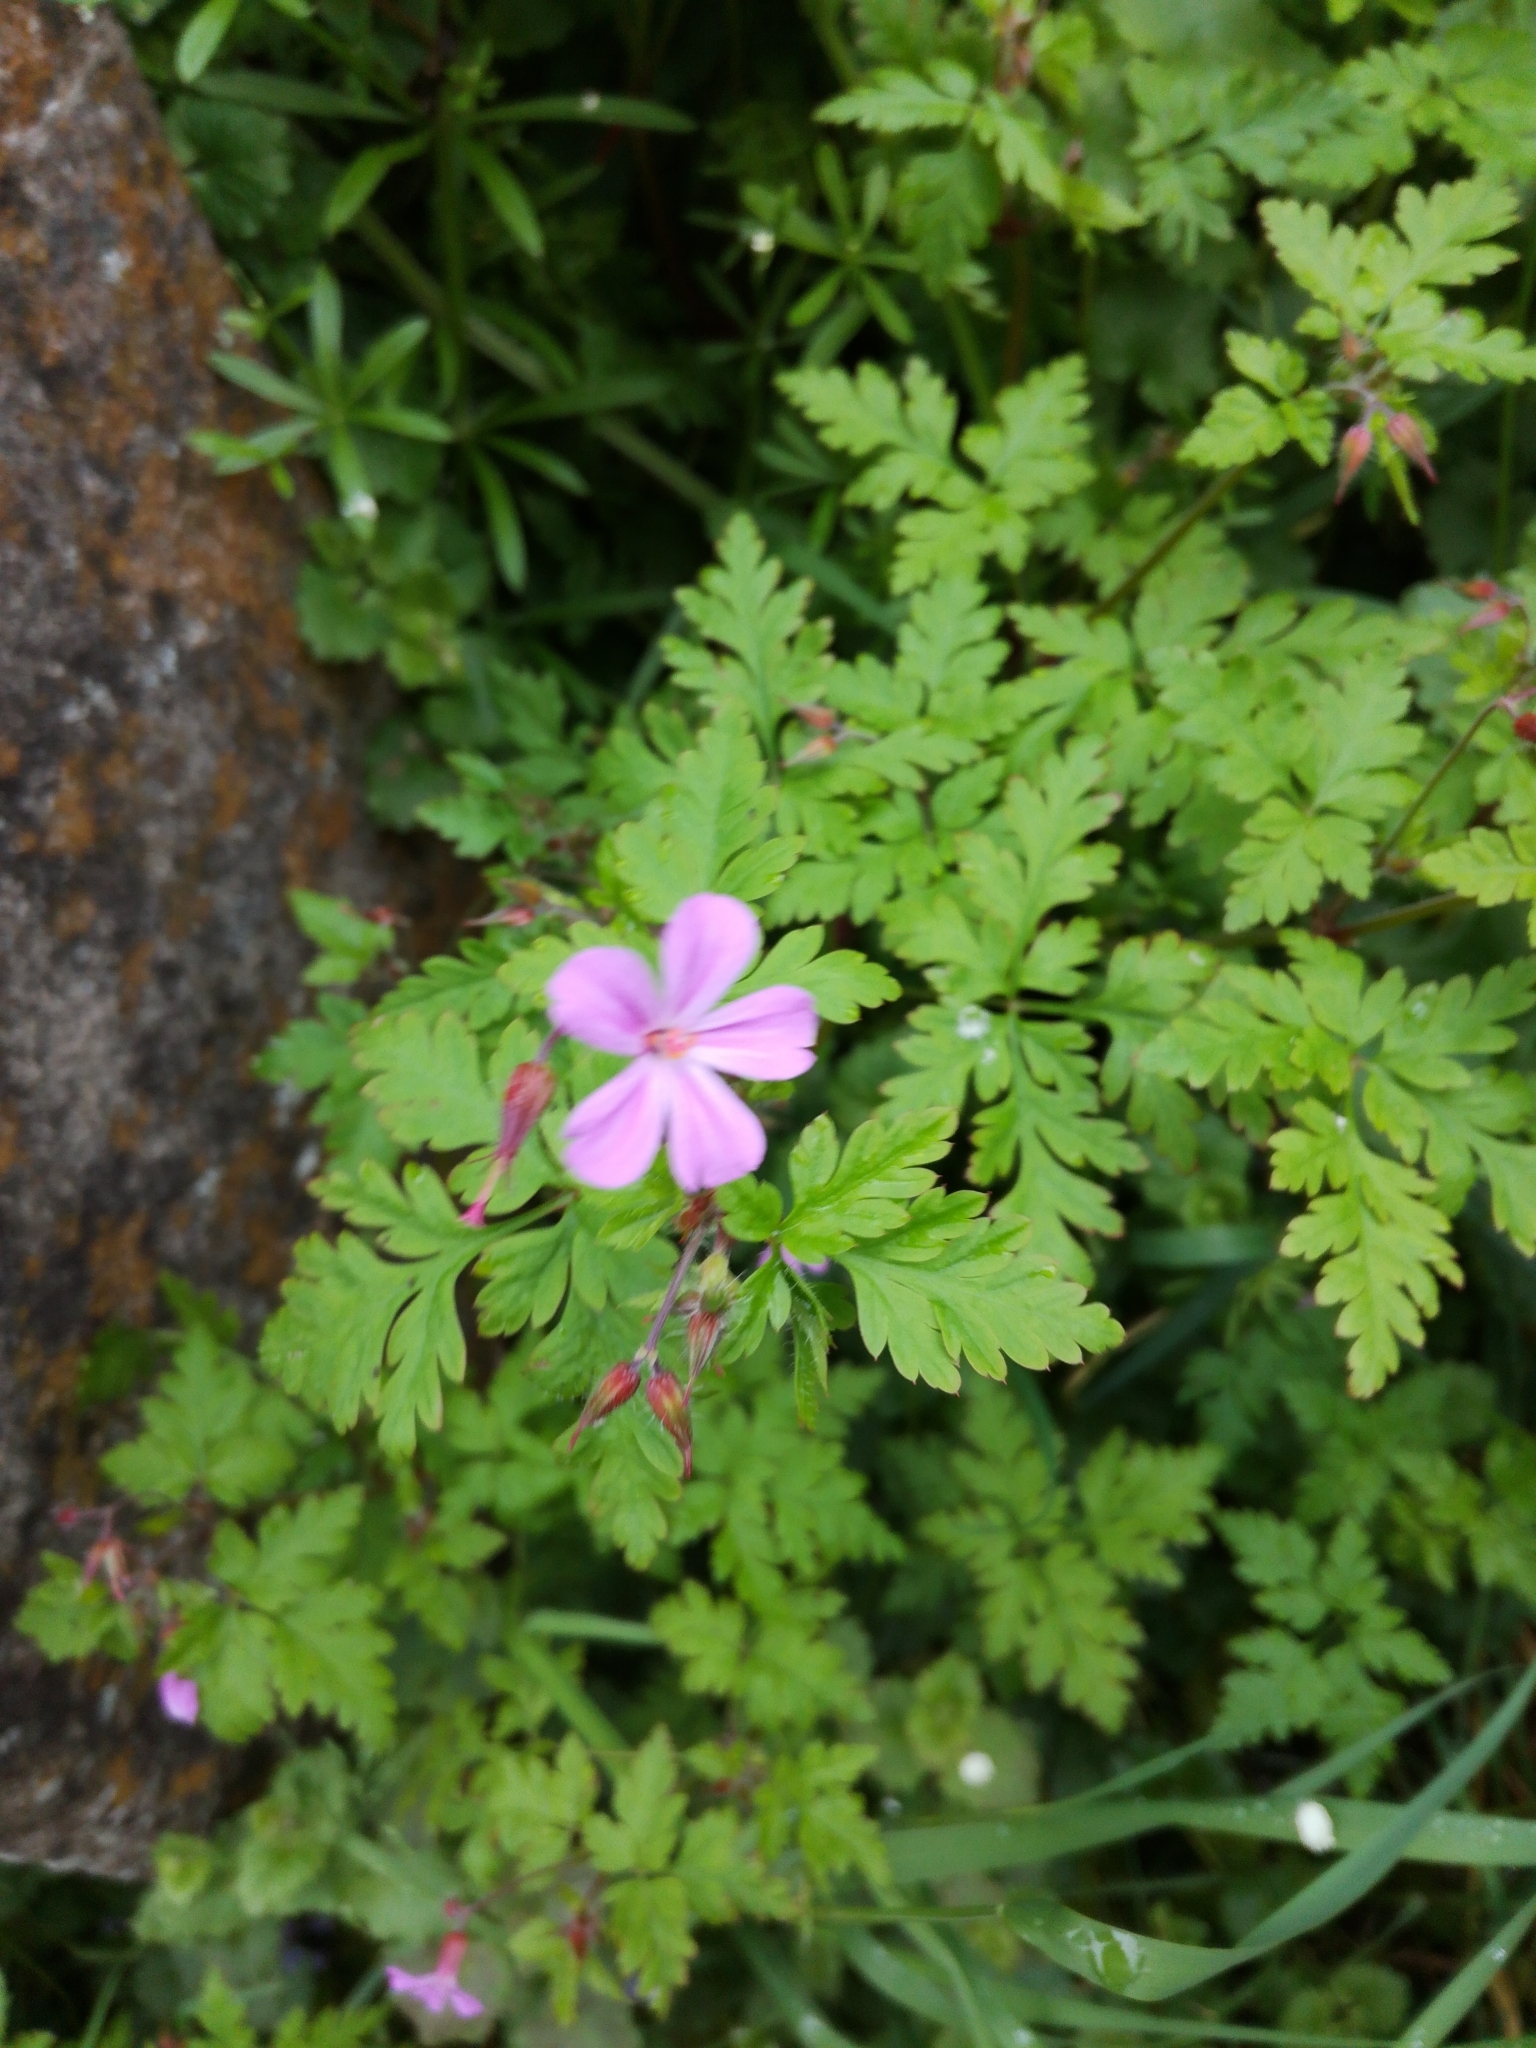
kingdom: Plantae
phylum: Tracheophyta
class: Magnoliopsida
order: Geraniales
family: Geraniaceae
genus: Geranium
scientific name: Geranium robertianum
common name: Herb-robert
